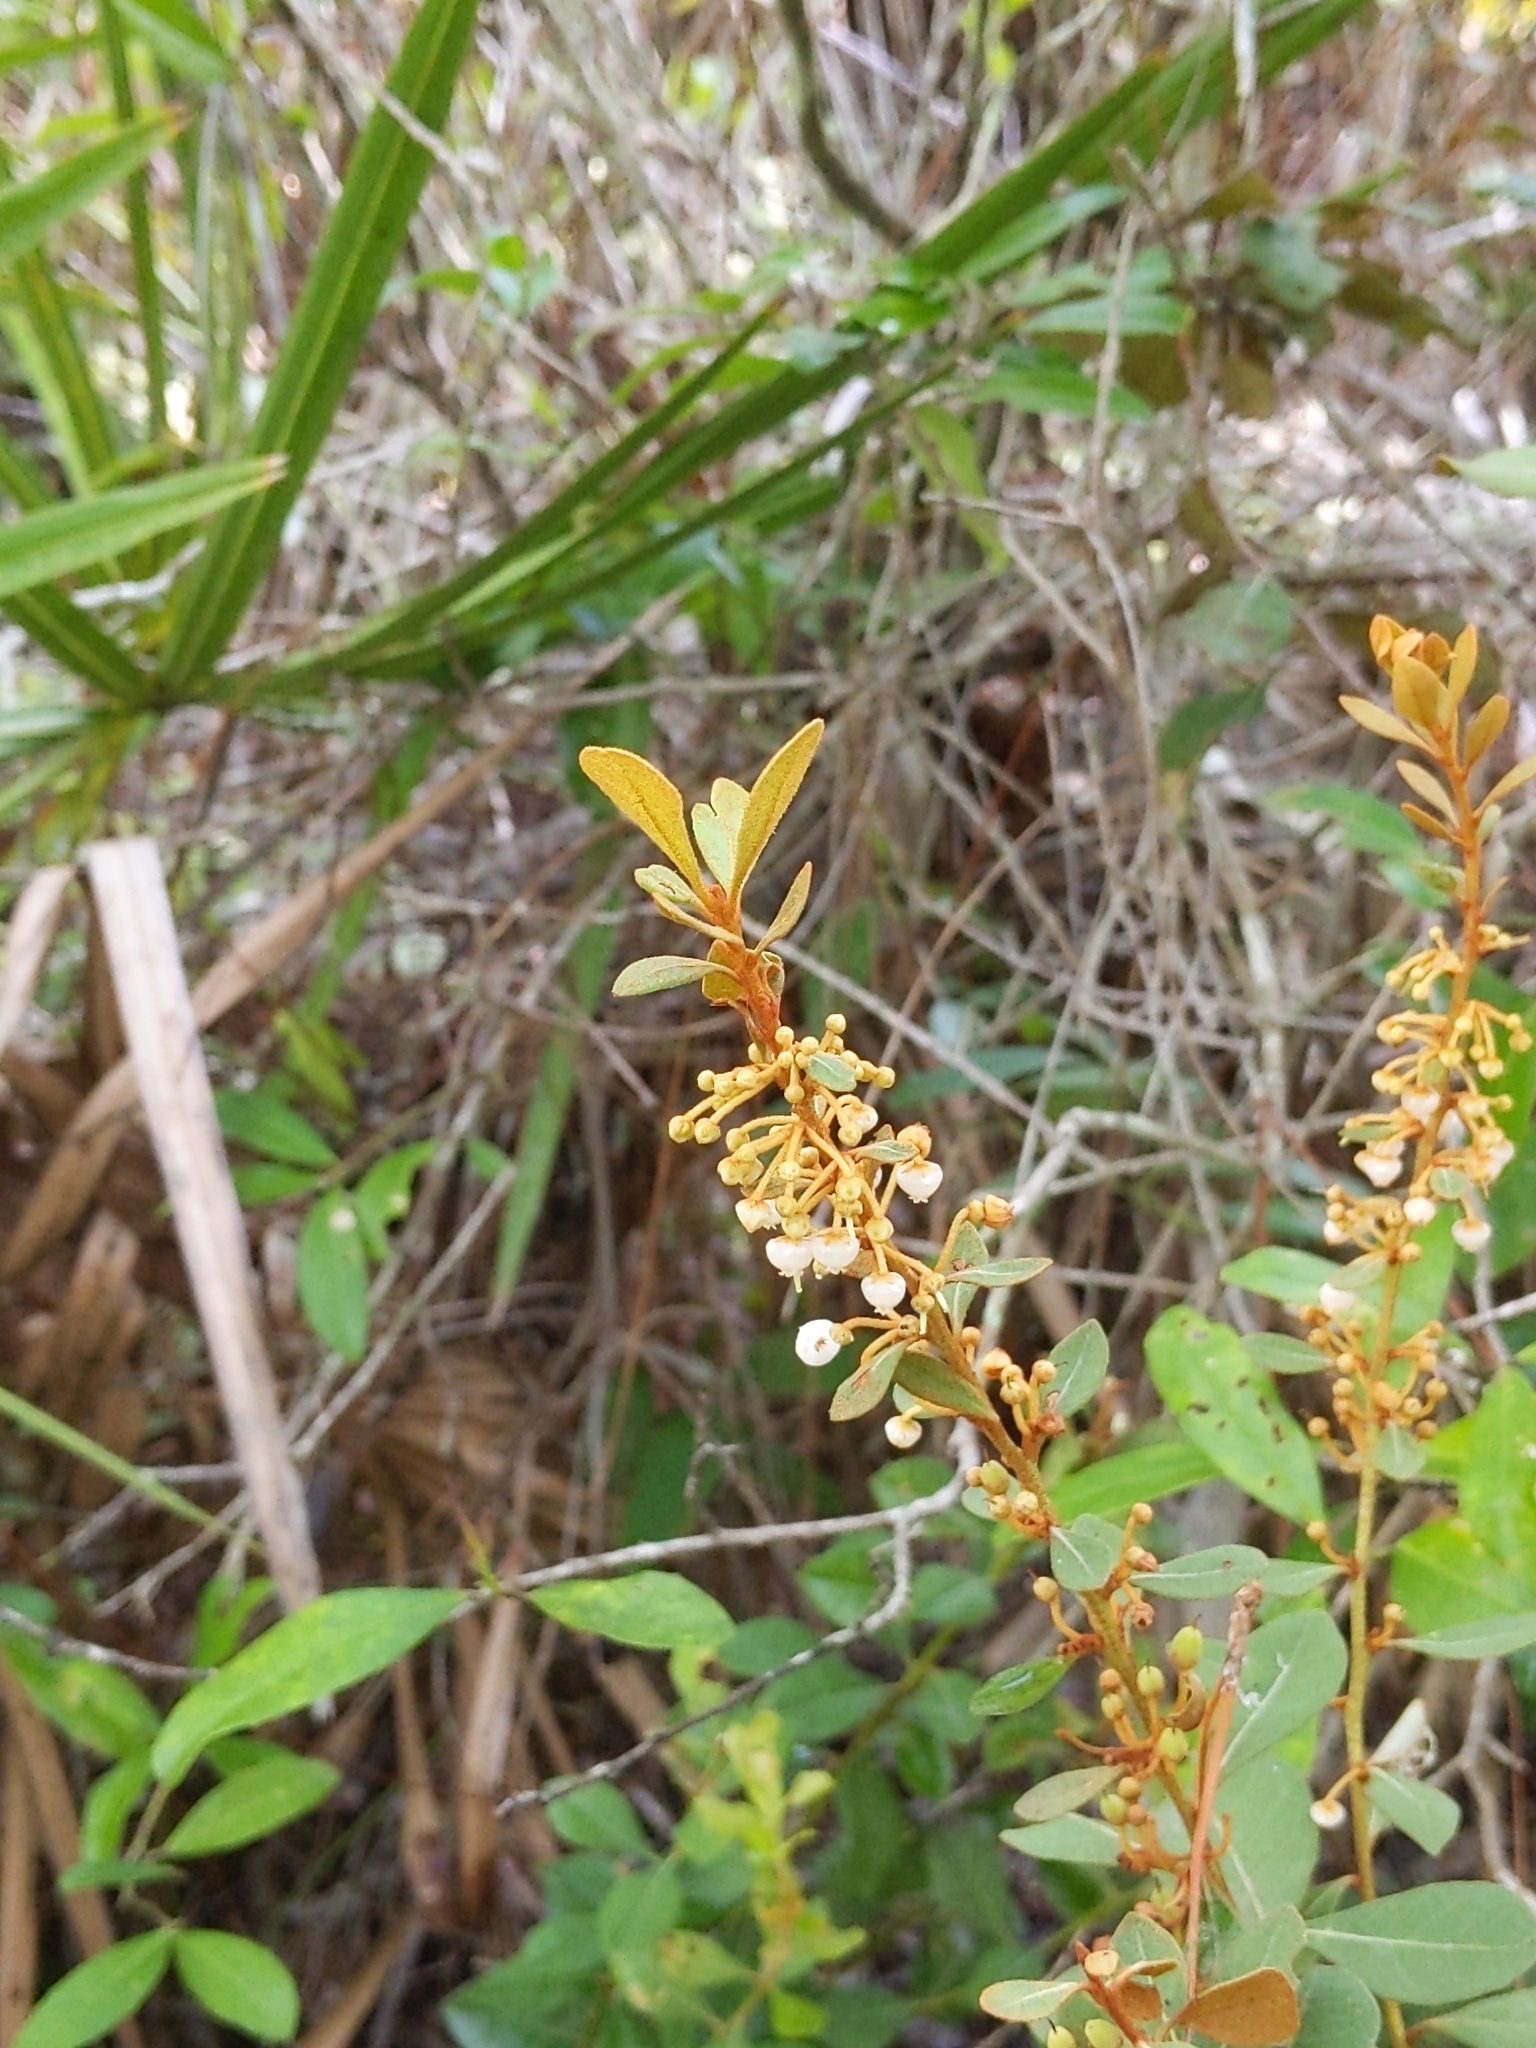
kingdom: Plantae
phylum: Tracheophyta
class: Magnoliopsida
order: Ericales
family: Ericaceae
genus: Lyonia
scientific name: Lyonia fruticosa
